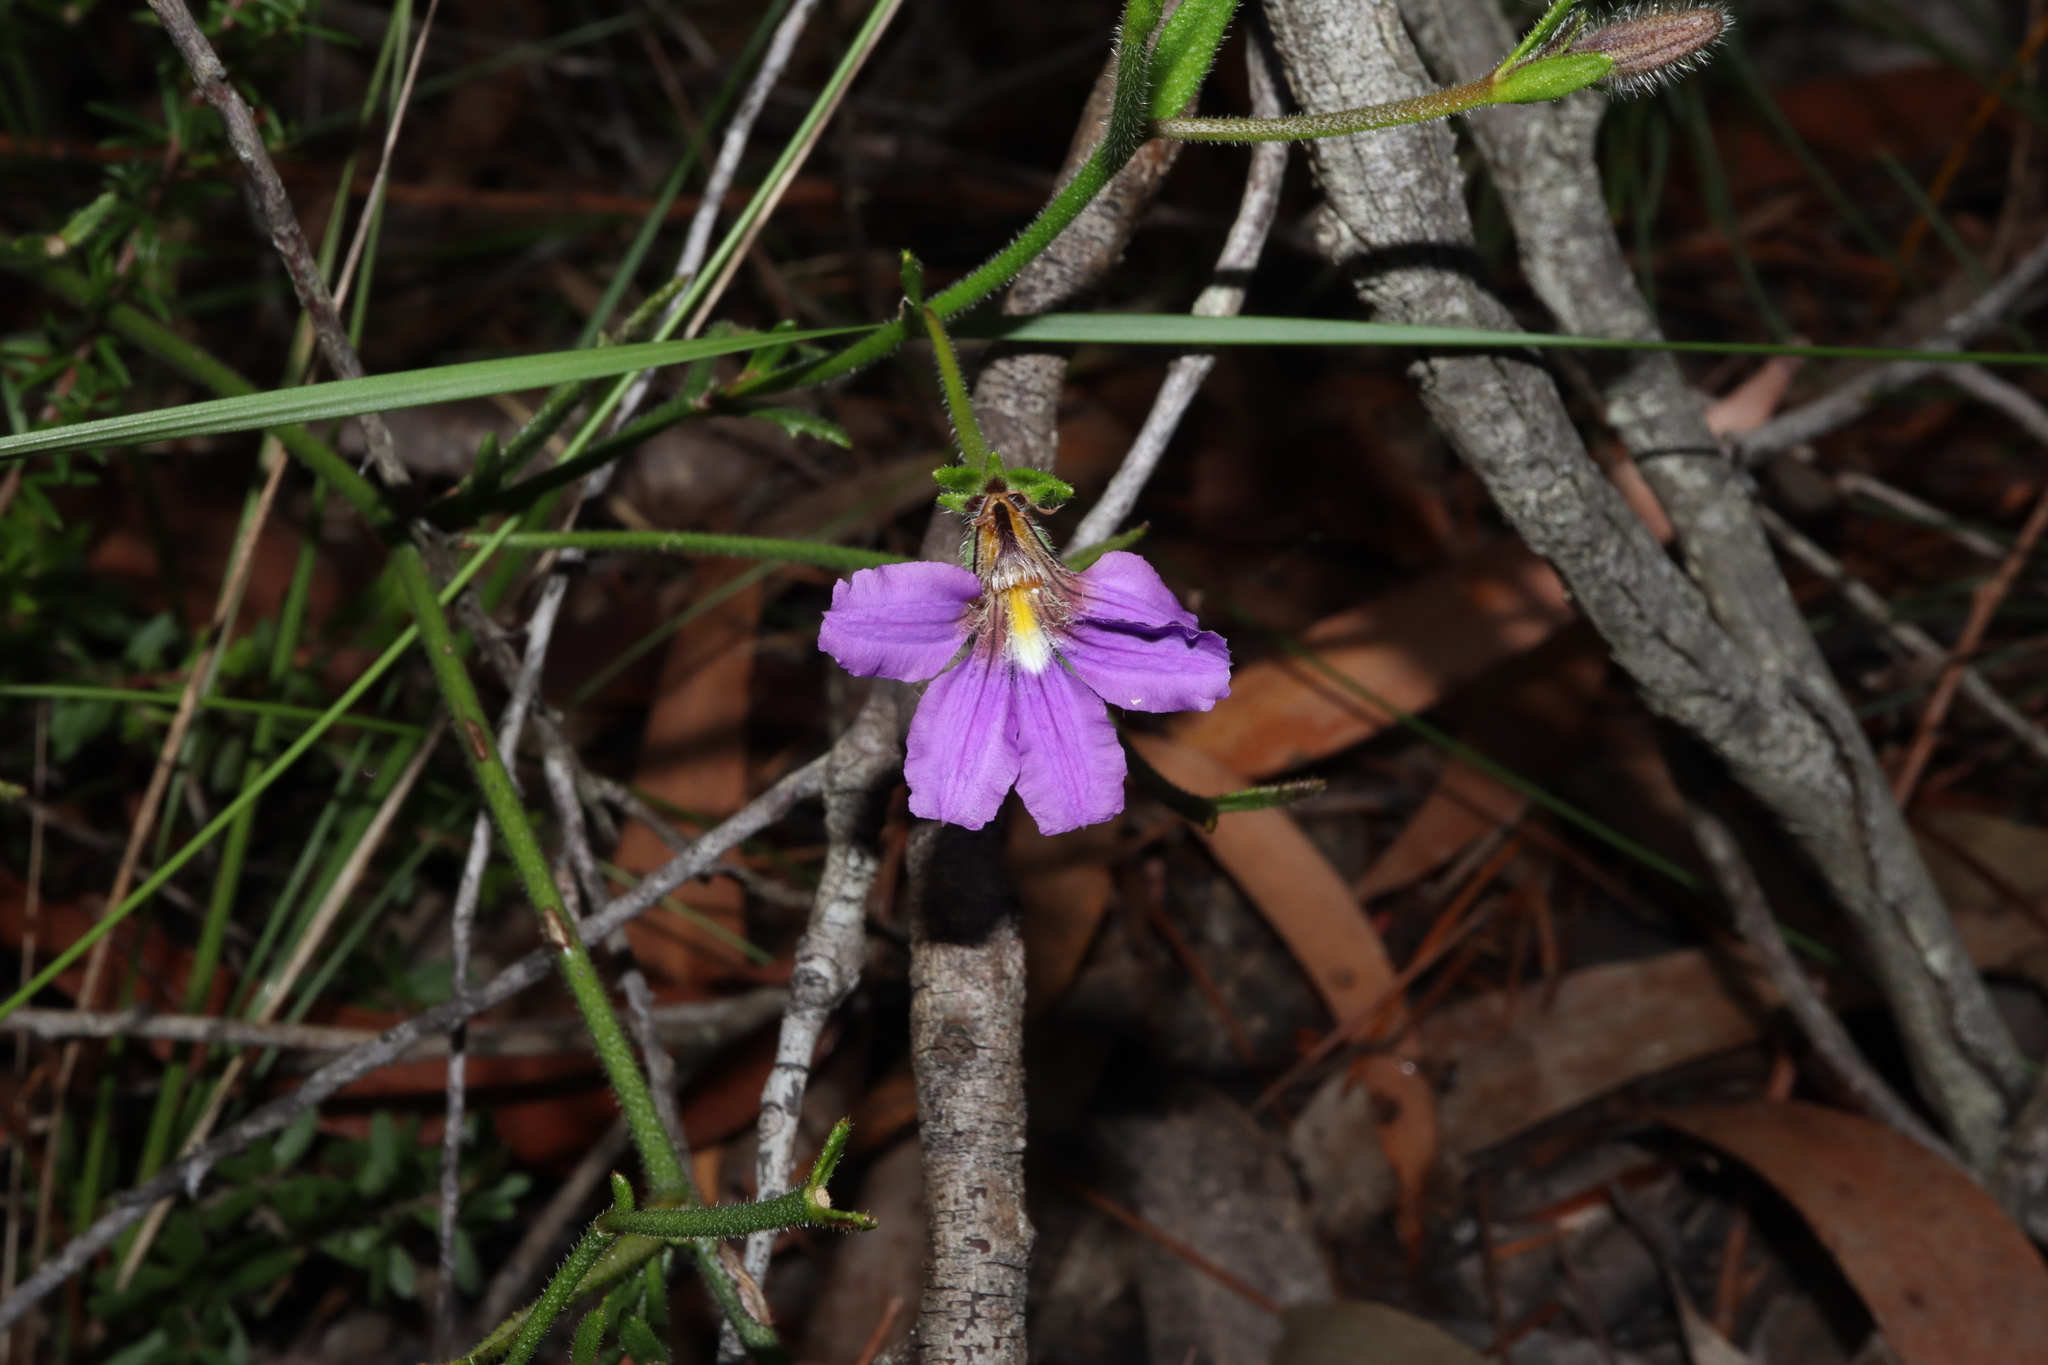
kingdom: Plantae
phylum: Tracheophyta
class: Magnoliopsida
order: Asterales
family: Goodeniaceae
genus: Scaevola
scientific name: Scaevola ramosissima
